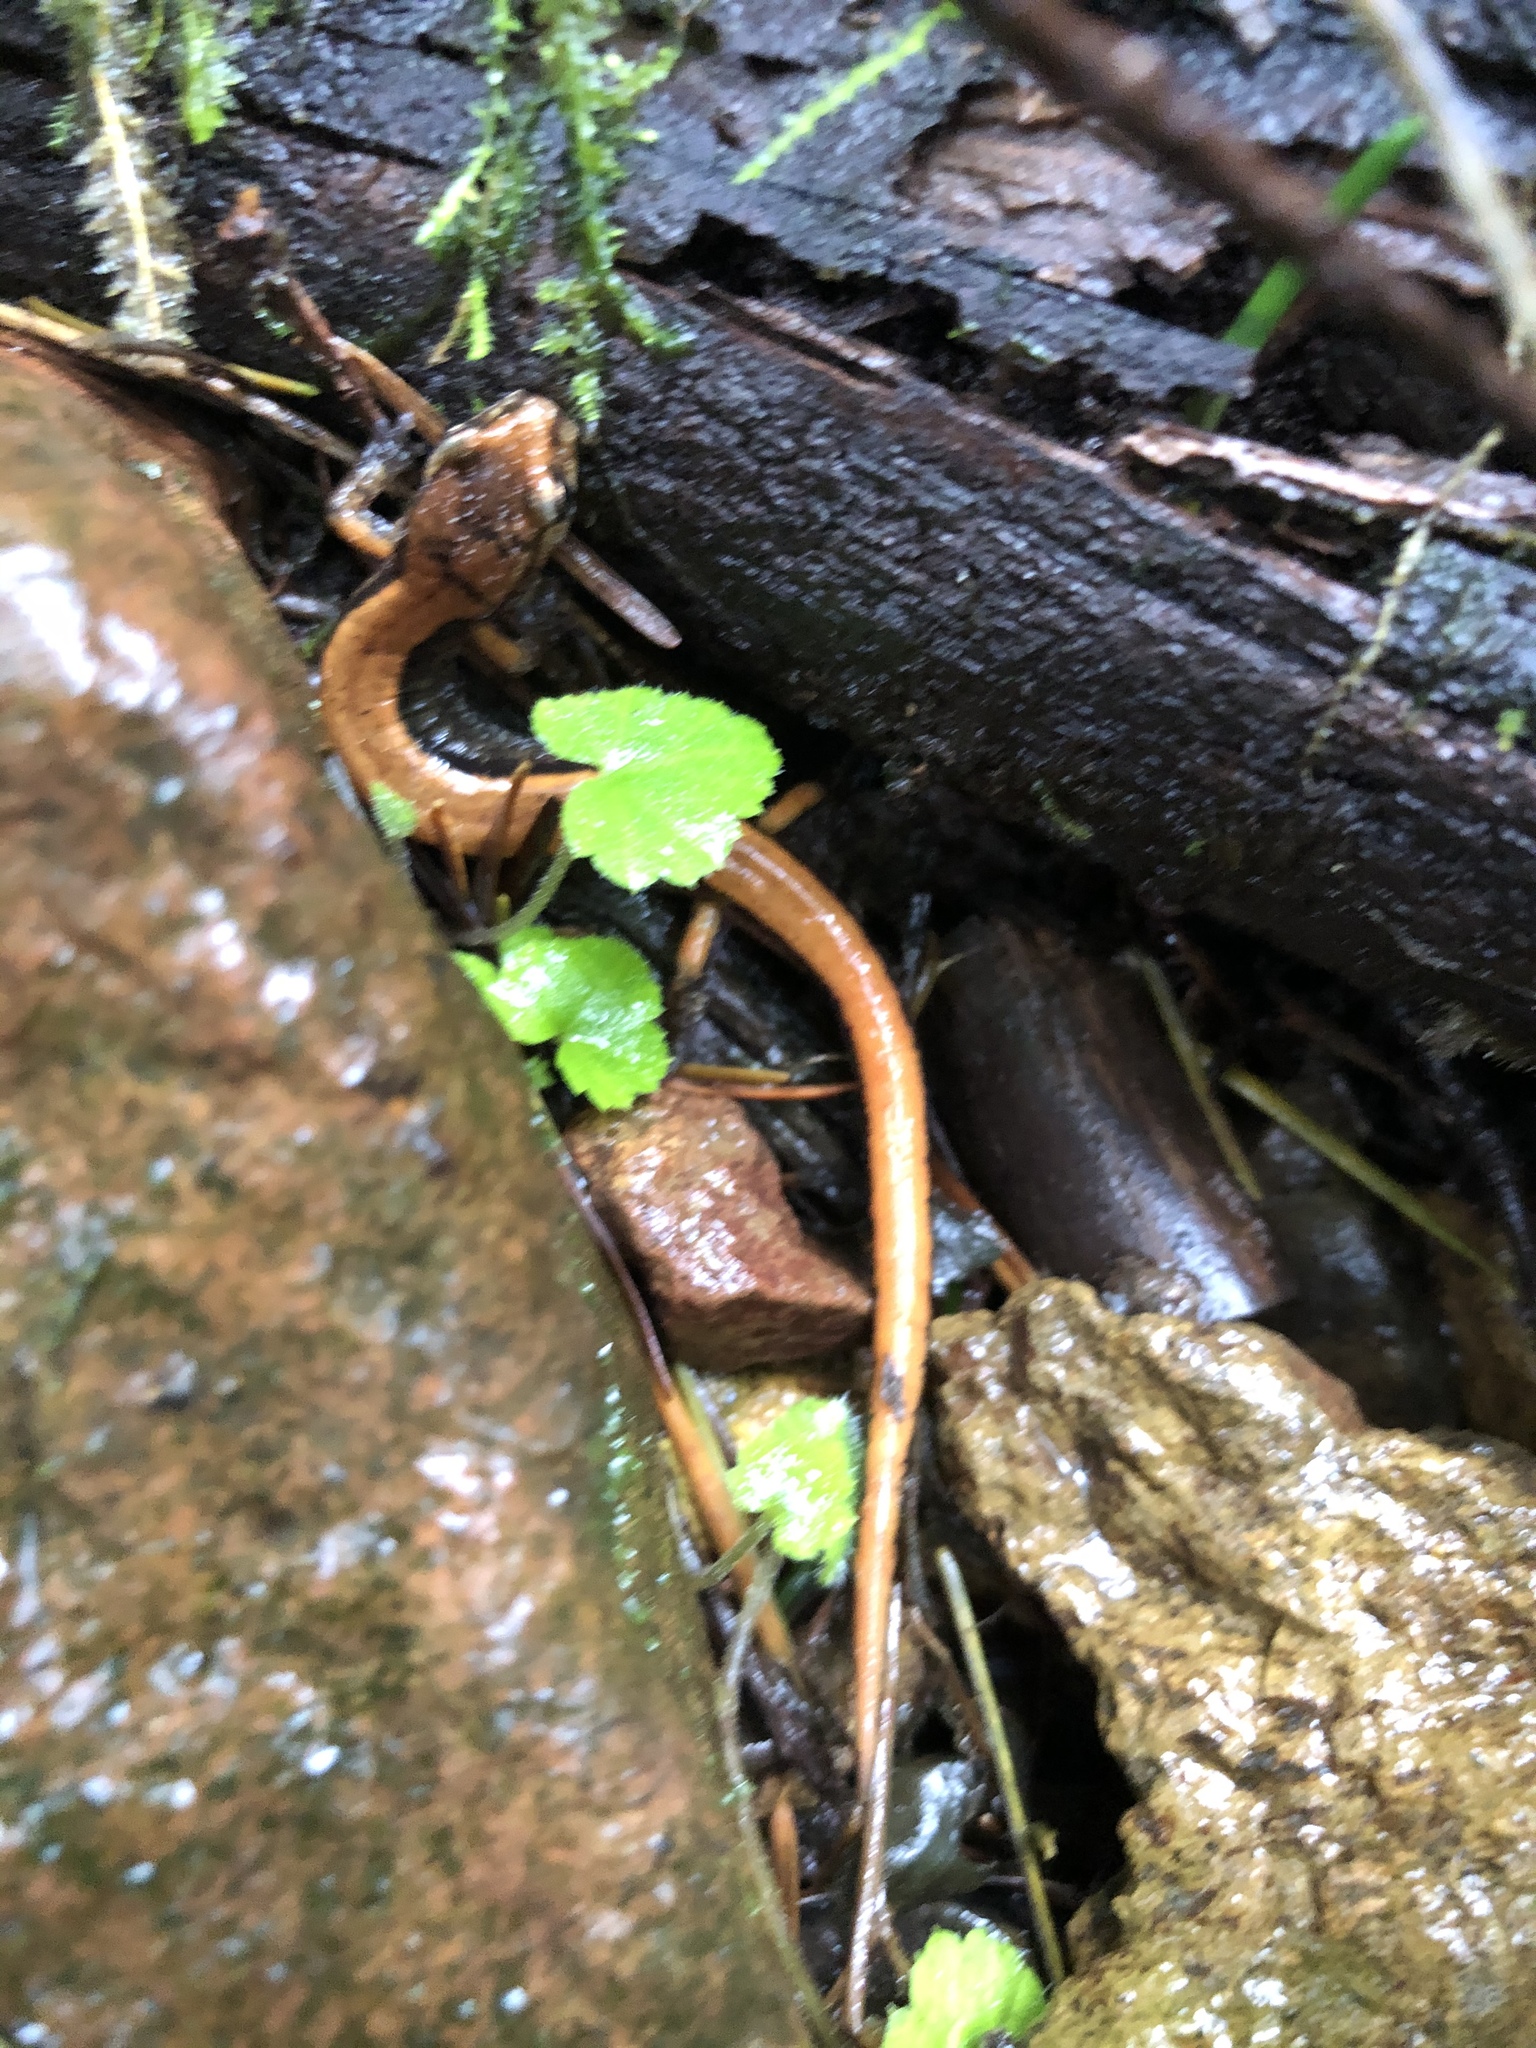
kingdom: Animalia
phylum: Chordata
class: Amphibia
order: Caudata
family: Plethodontidae
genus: Plethodon
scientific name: Plethodon vehiculum
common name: Western red-backed salamander
